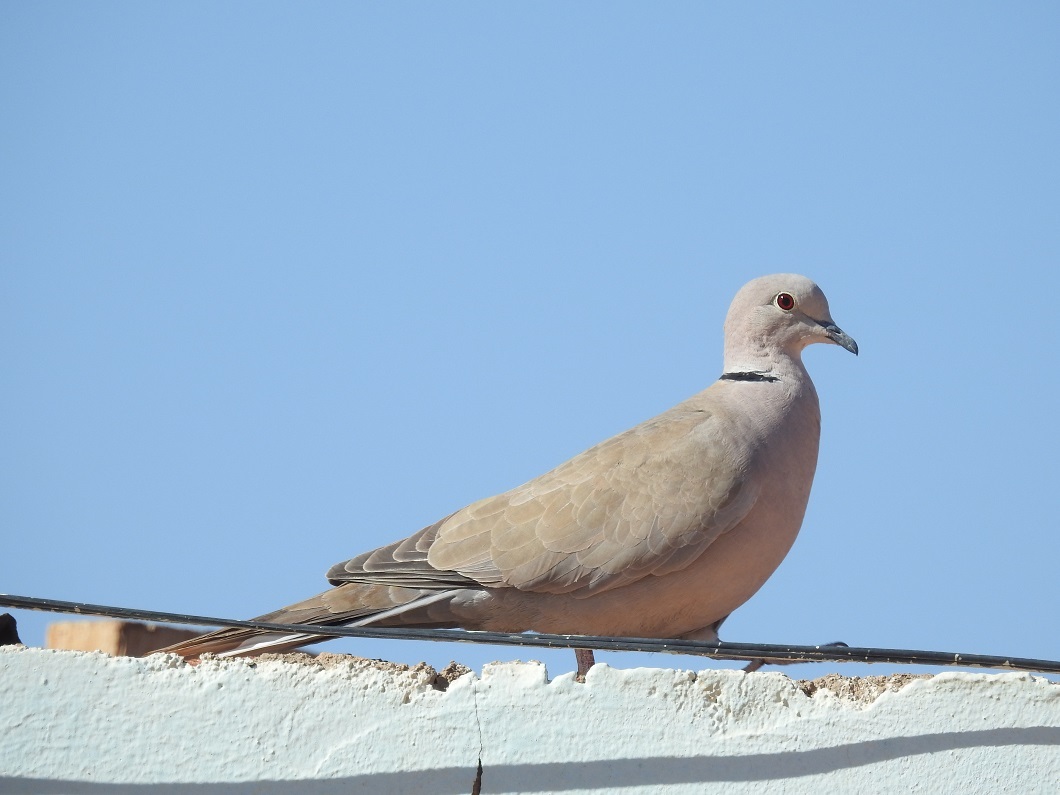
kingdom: Animalia
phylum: Chordata
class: Aves
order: Columbiformes
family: Columbidae
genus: Streptopelia
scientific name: Streptopelia decaocto
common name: Eurasian collared dove
